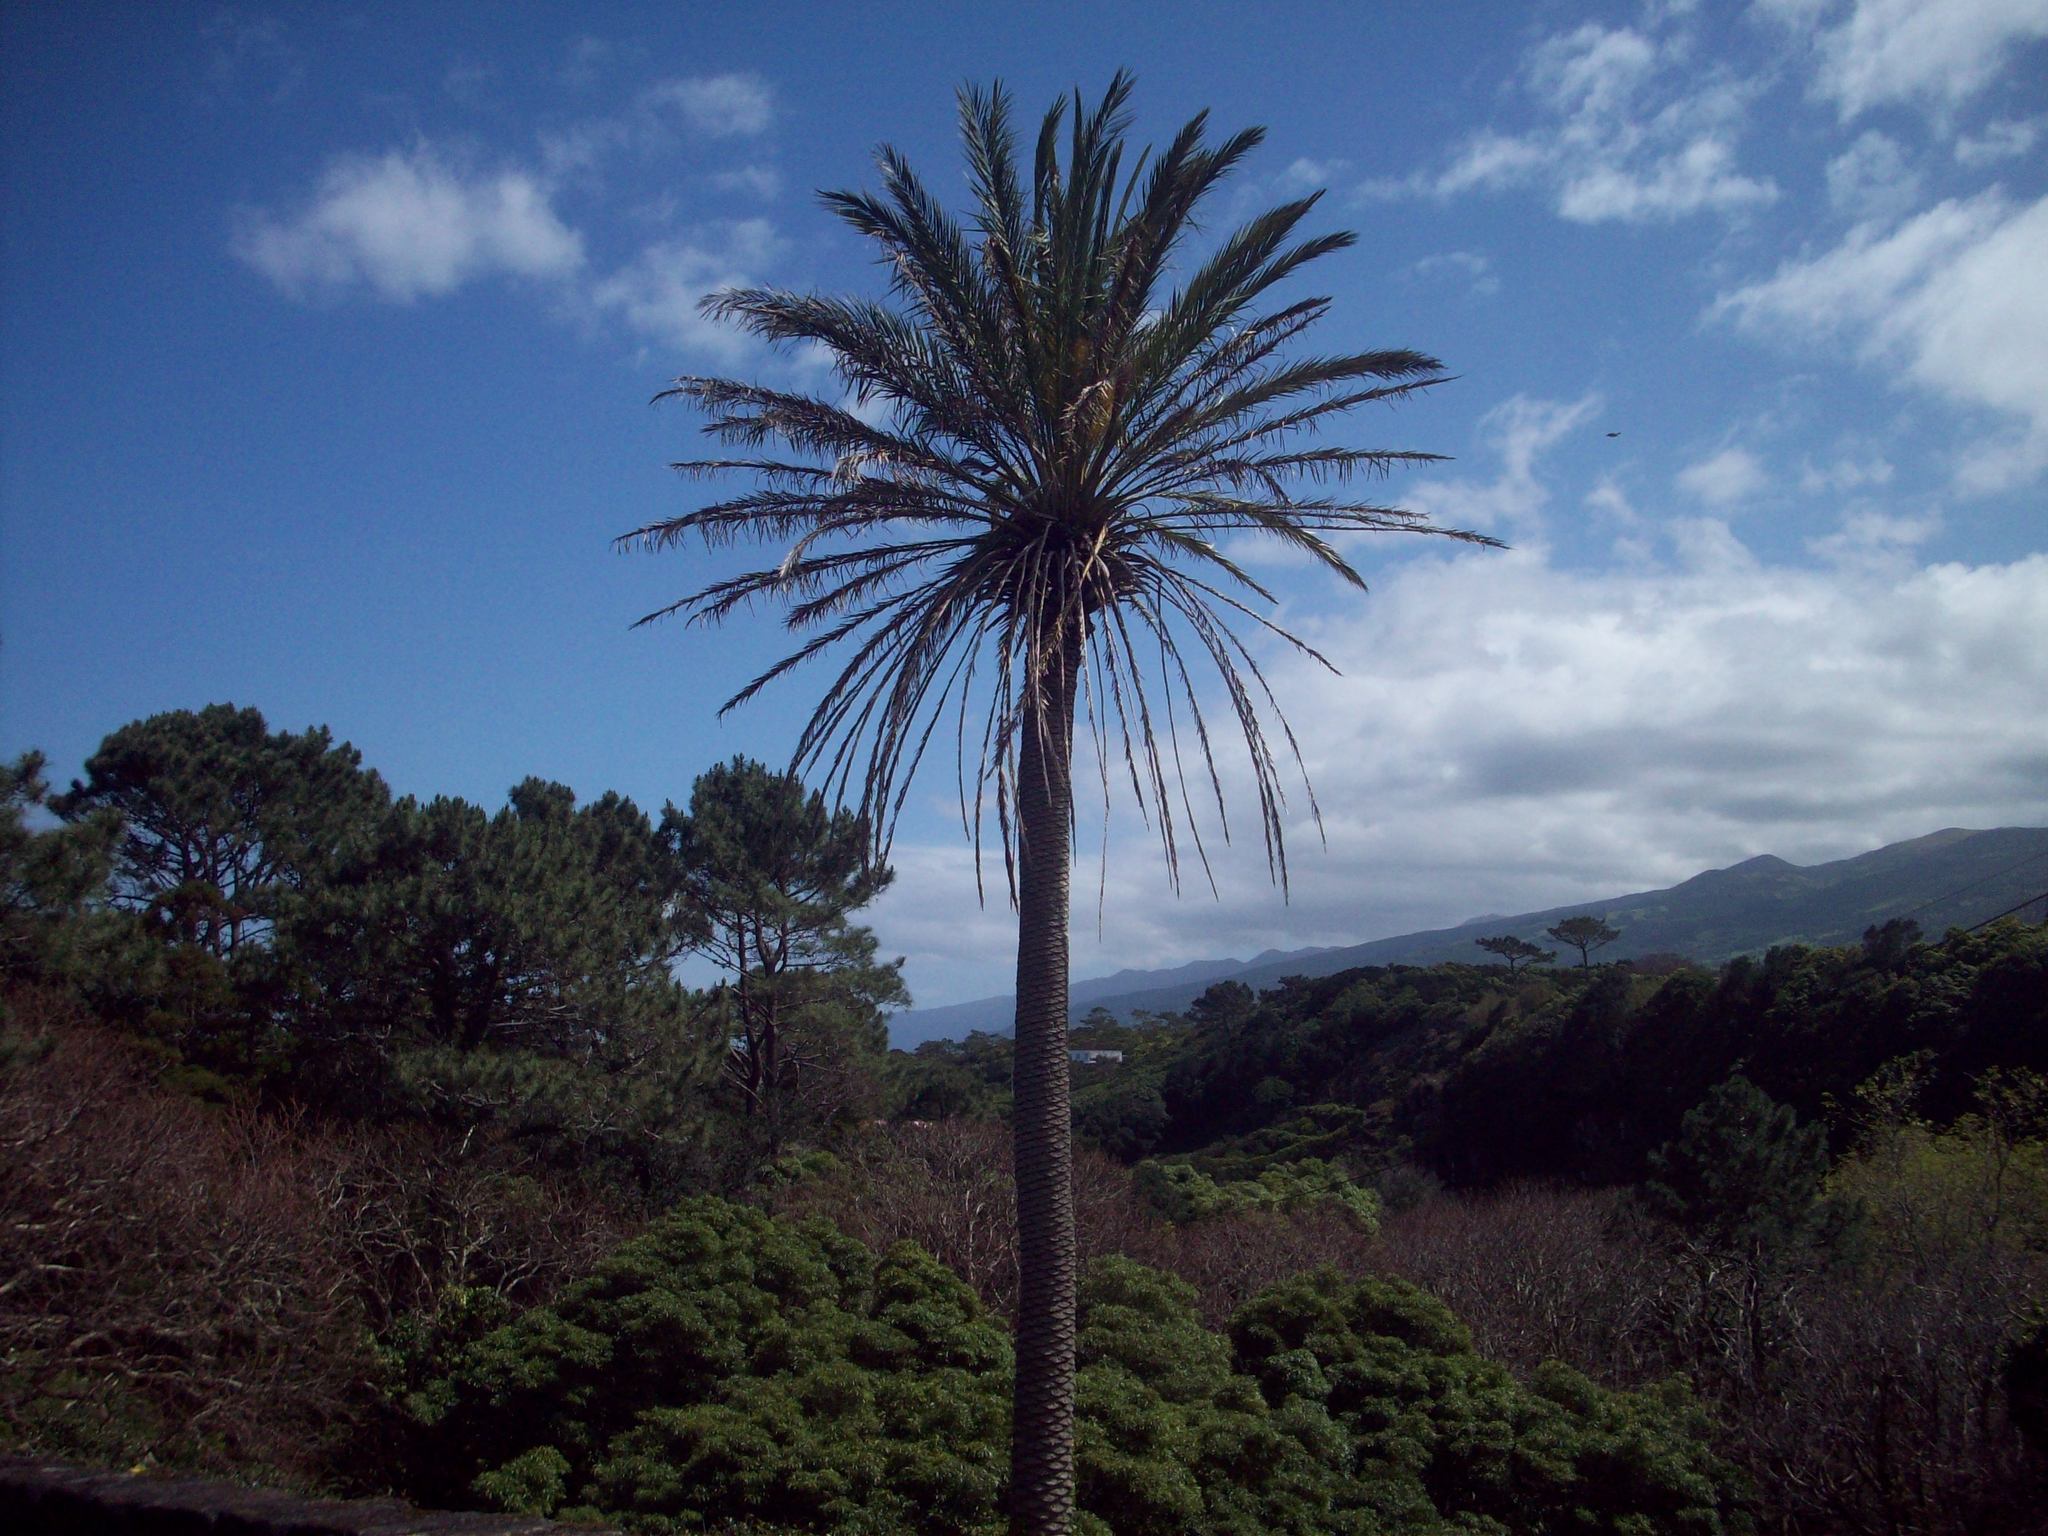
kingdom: Plantae
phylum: Tracheophyta
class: Liliopsida
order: Arecales
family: Arecaceae
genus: Phoenix
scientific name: Phoenix canariensis
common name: Canary island date palm
